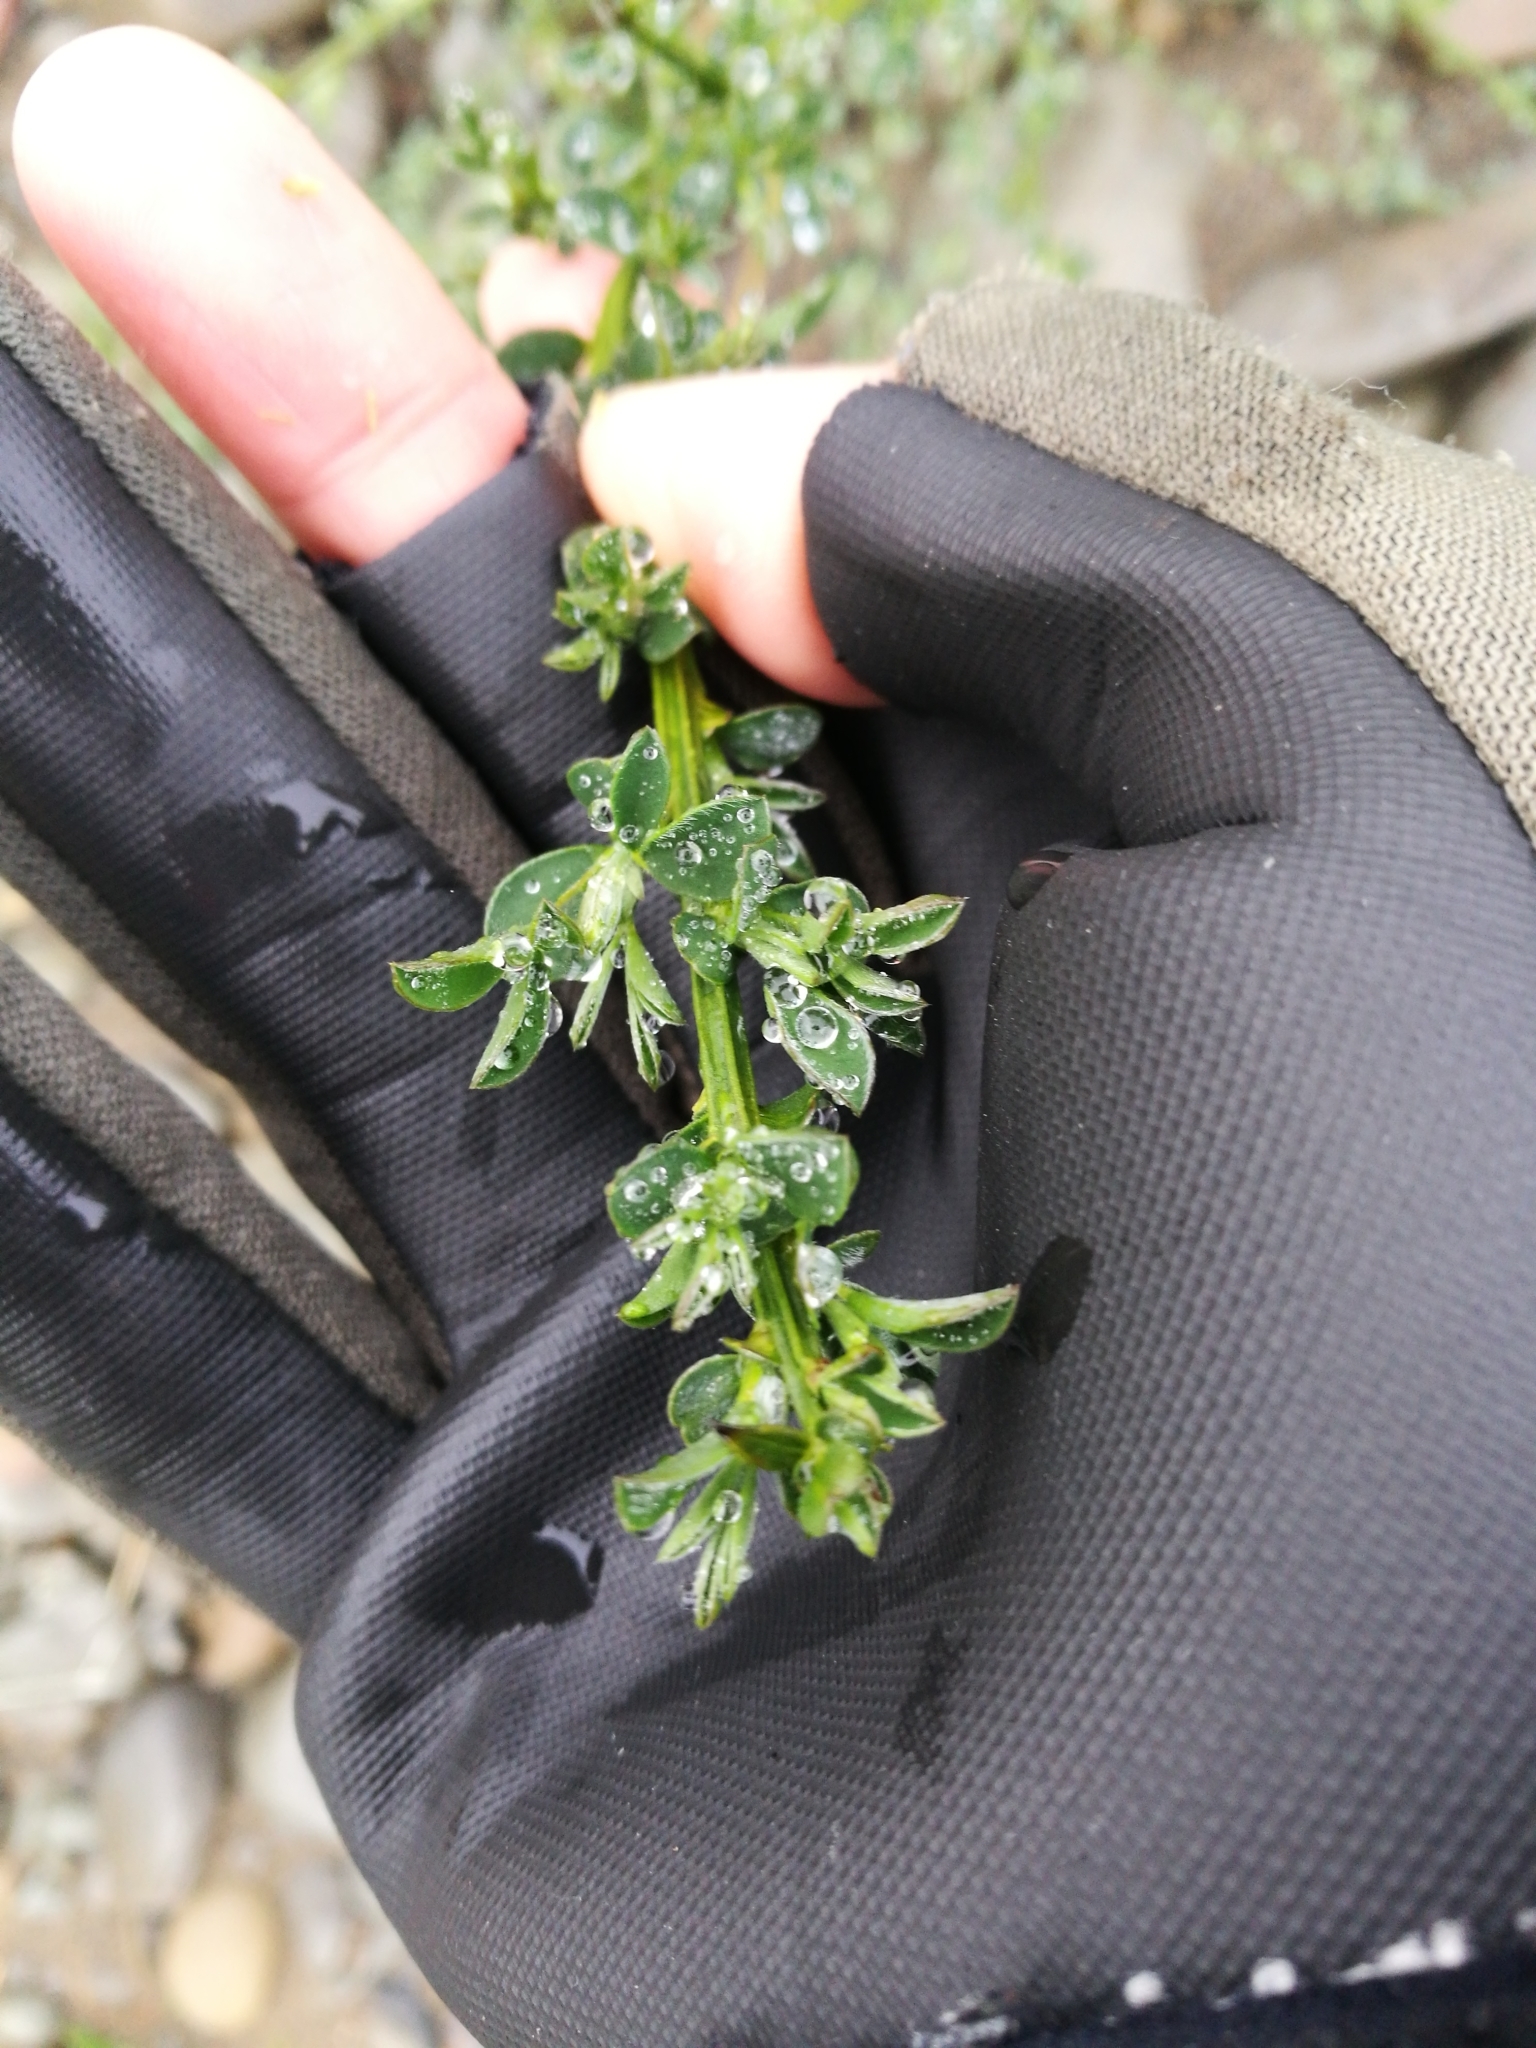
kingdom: Plantae
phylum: Tracheophyta
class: Magnoliopsida
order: Fabales
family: Fabaceae
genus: Cytisus
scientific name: Cytisus scoparius
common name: Scotch broom
